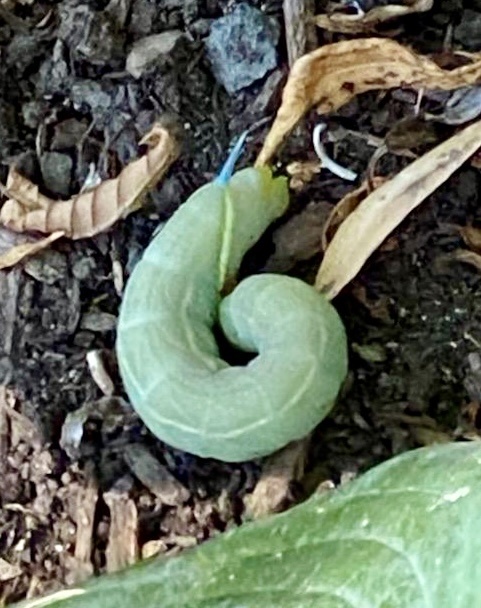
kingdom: Animalia
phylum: Arthropoda
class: Insecta
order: Lepidoptera
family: Sphingidae
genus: Smerinthus
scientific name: Smerinthus cerisyi
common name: Cerisy's sphinx moth
